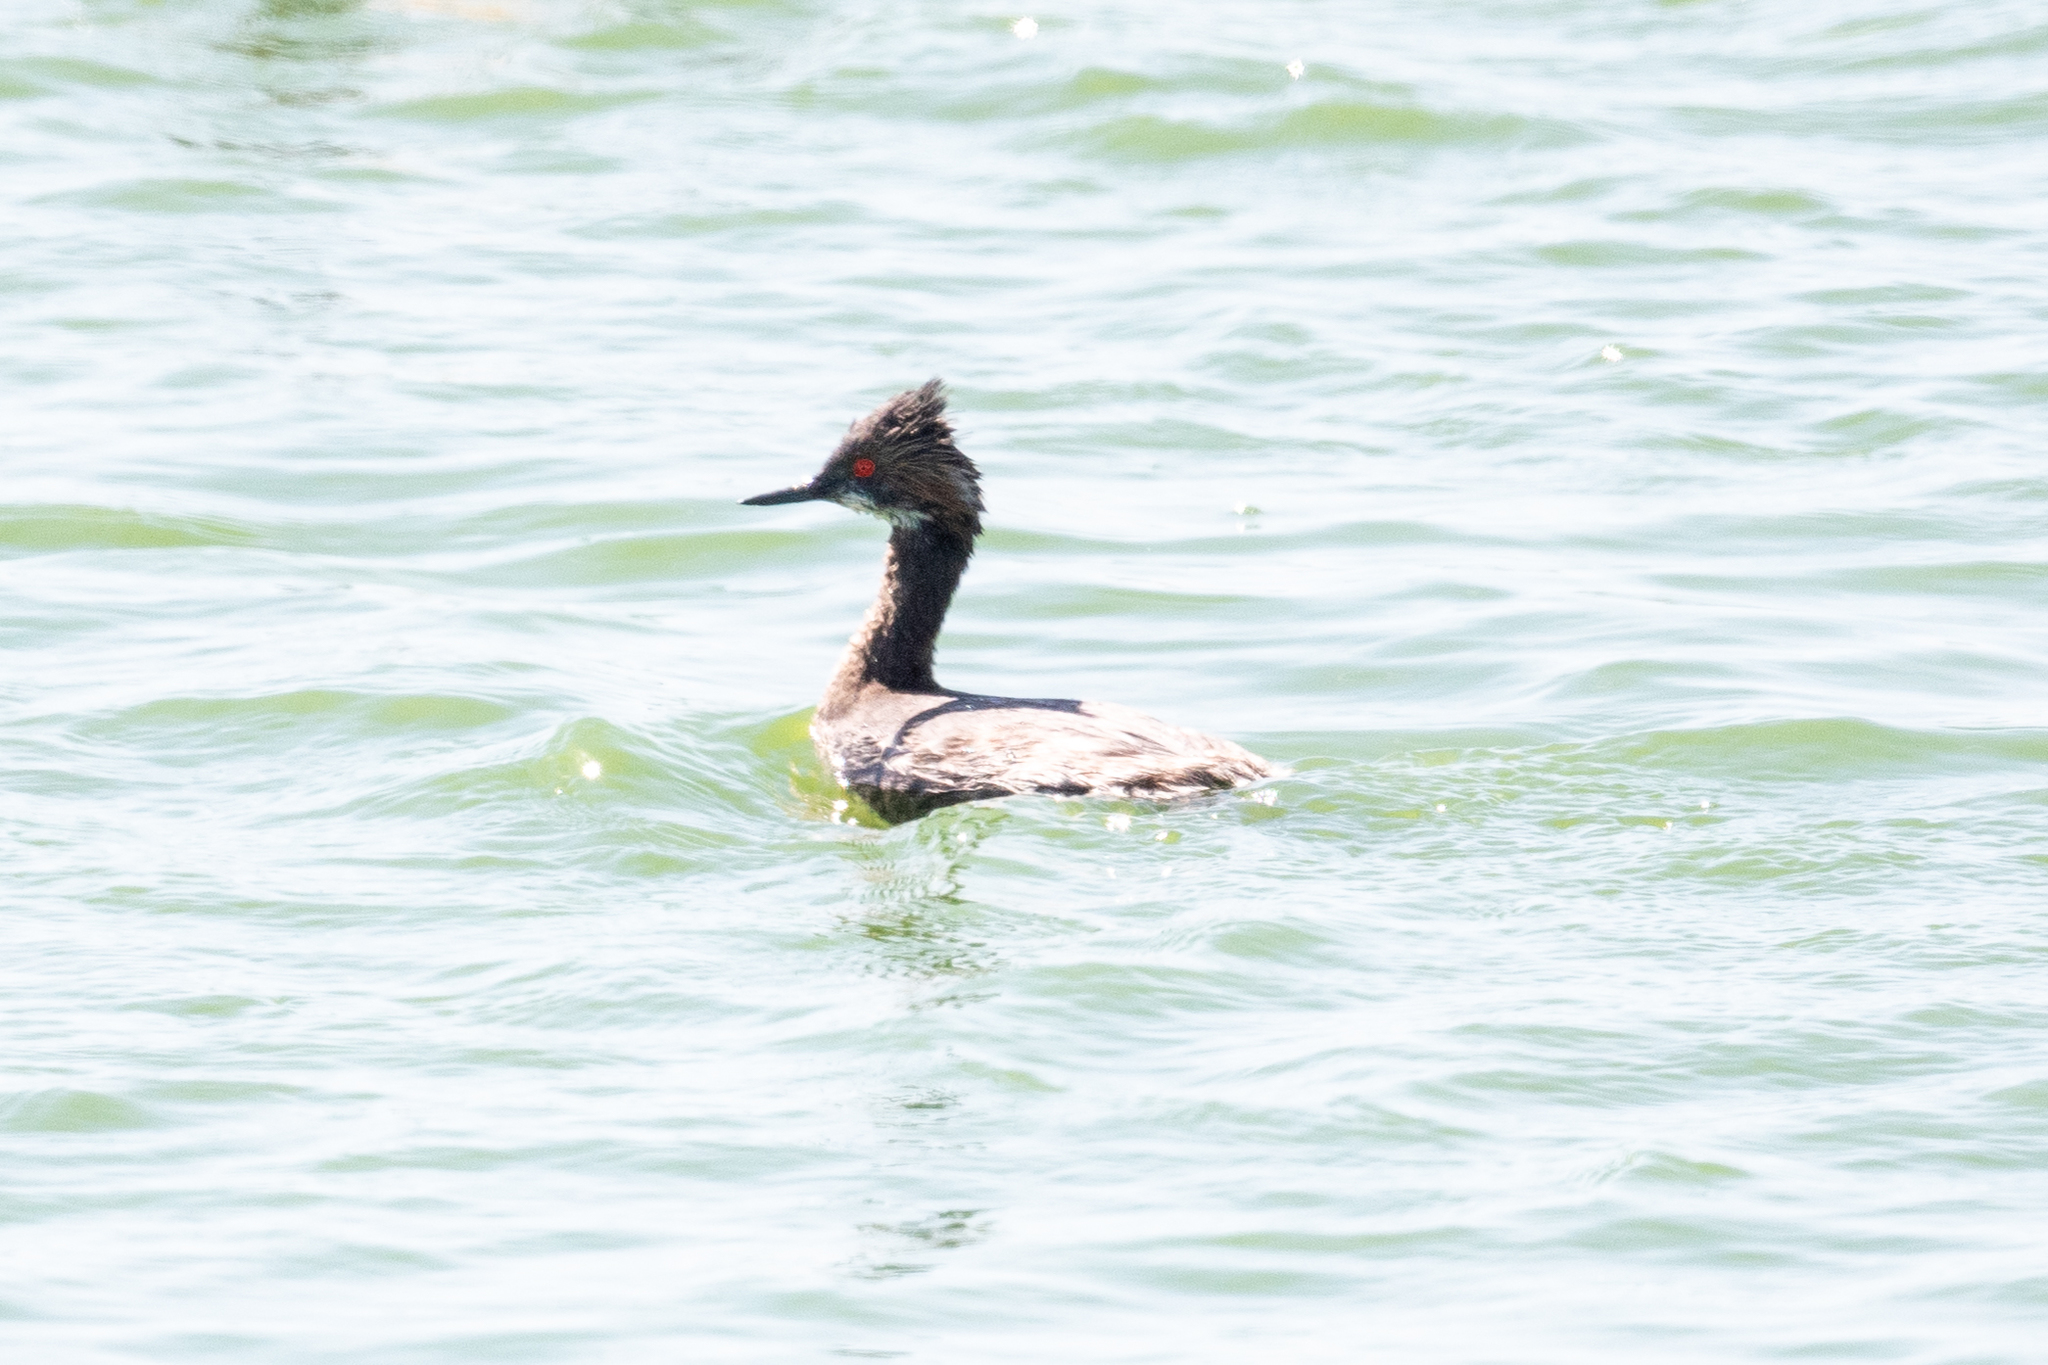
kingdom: Animalia
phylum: Chordata
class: Aves
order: Podicipediformes
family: Podicipedidae
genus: Podiceps
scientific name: Podiceps nigricollis
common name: Black-necked grebe
